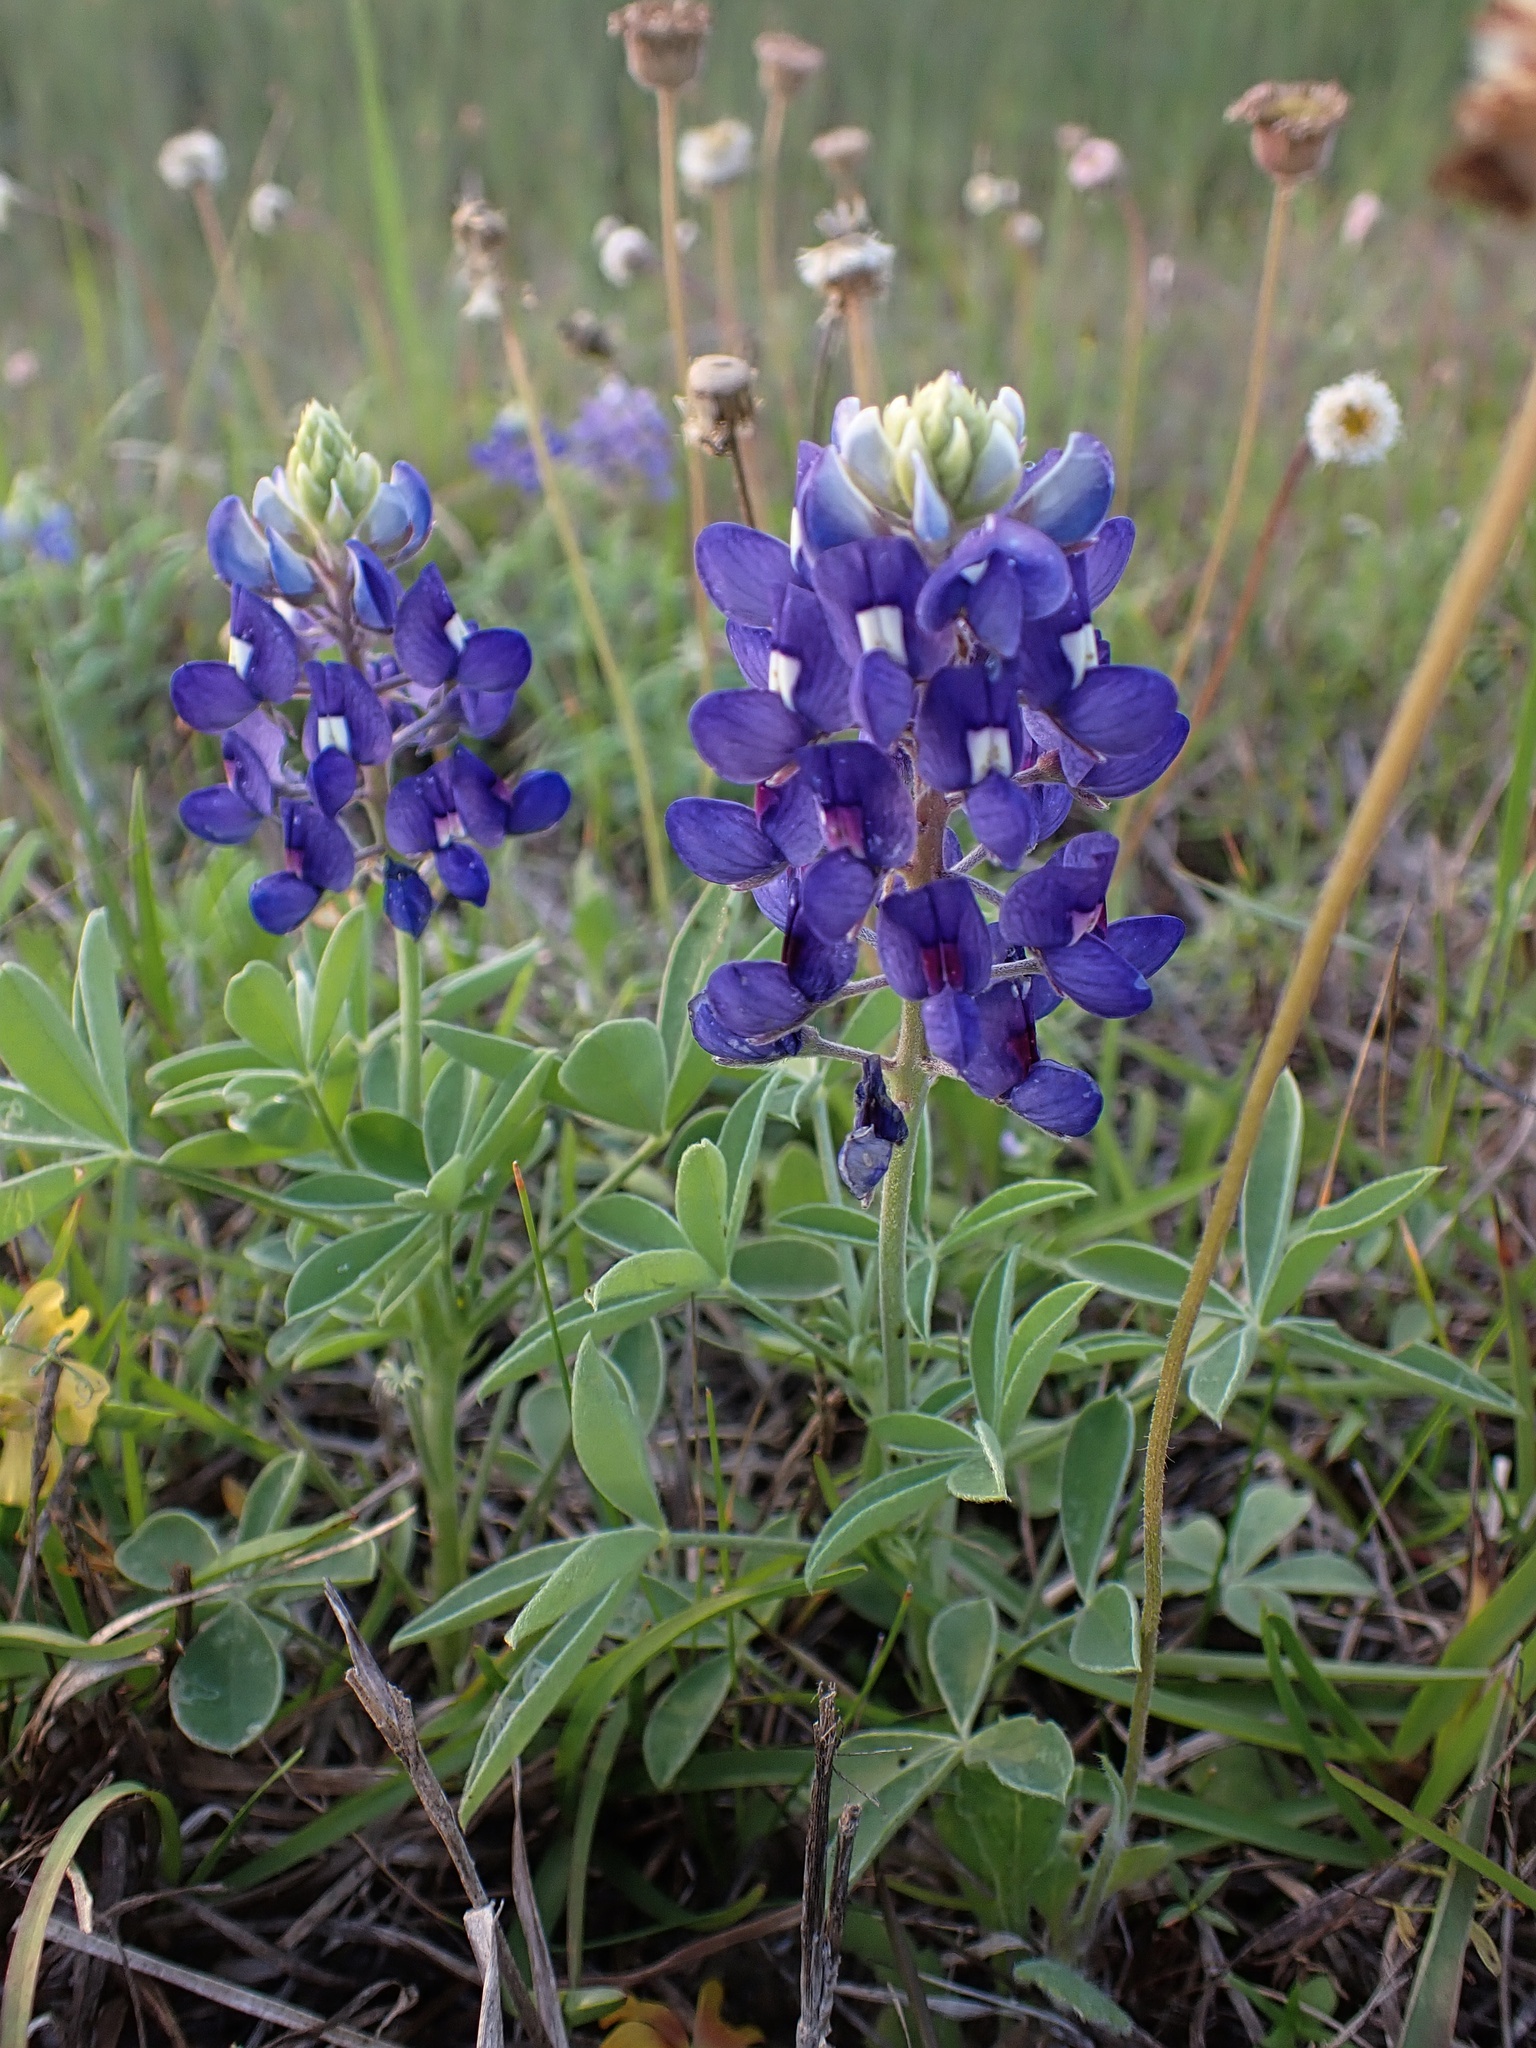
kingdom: Plantae
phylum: Tracheophyta
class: Magnoliopsida
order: Fabales
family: Fabaceae
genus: Lupinus
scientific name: Lupinus texensis
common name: Texas bluebonnet
